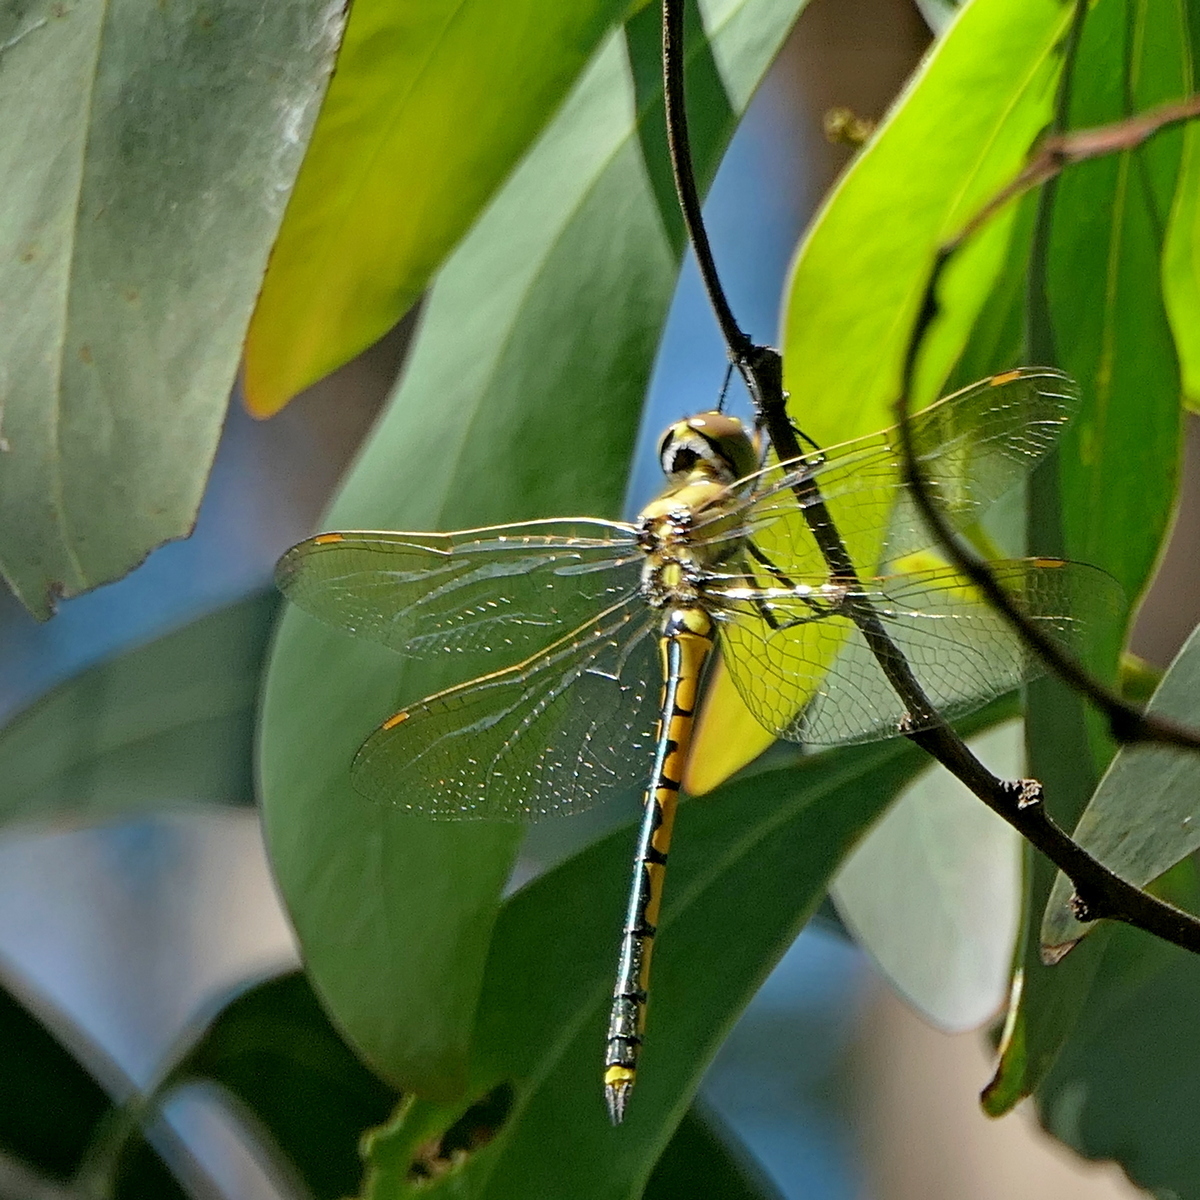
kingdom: Animalia
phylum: Arthropoda
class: Insecta
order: Odonata
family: Corduliidae
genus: Hemicordulia
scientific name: Hemicordulia tau
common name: Tau emerald
